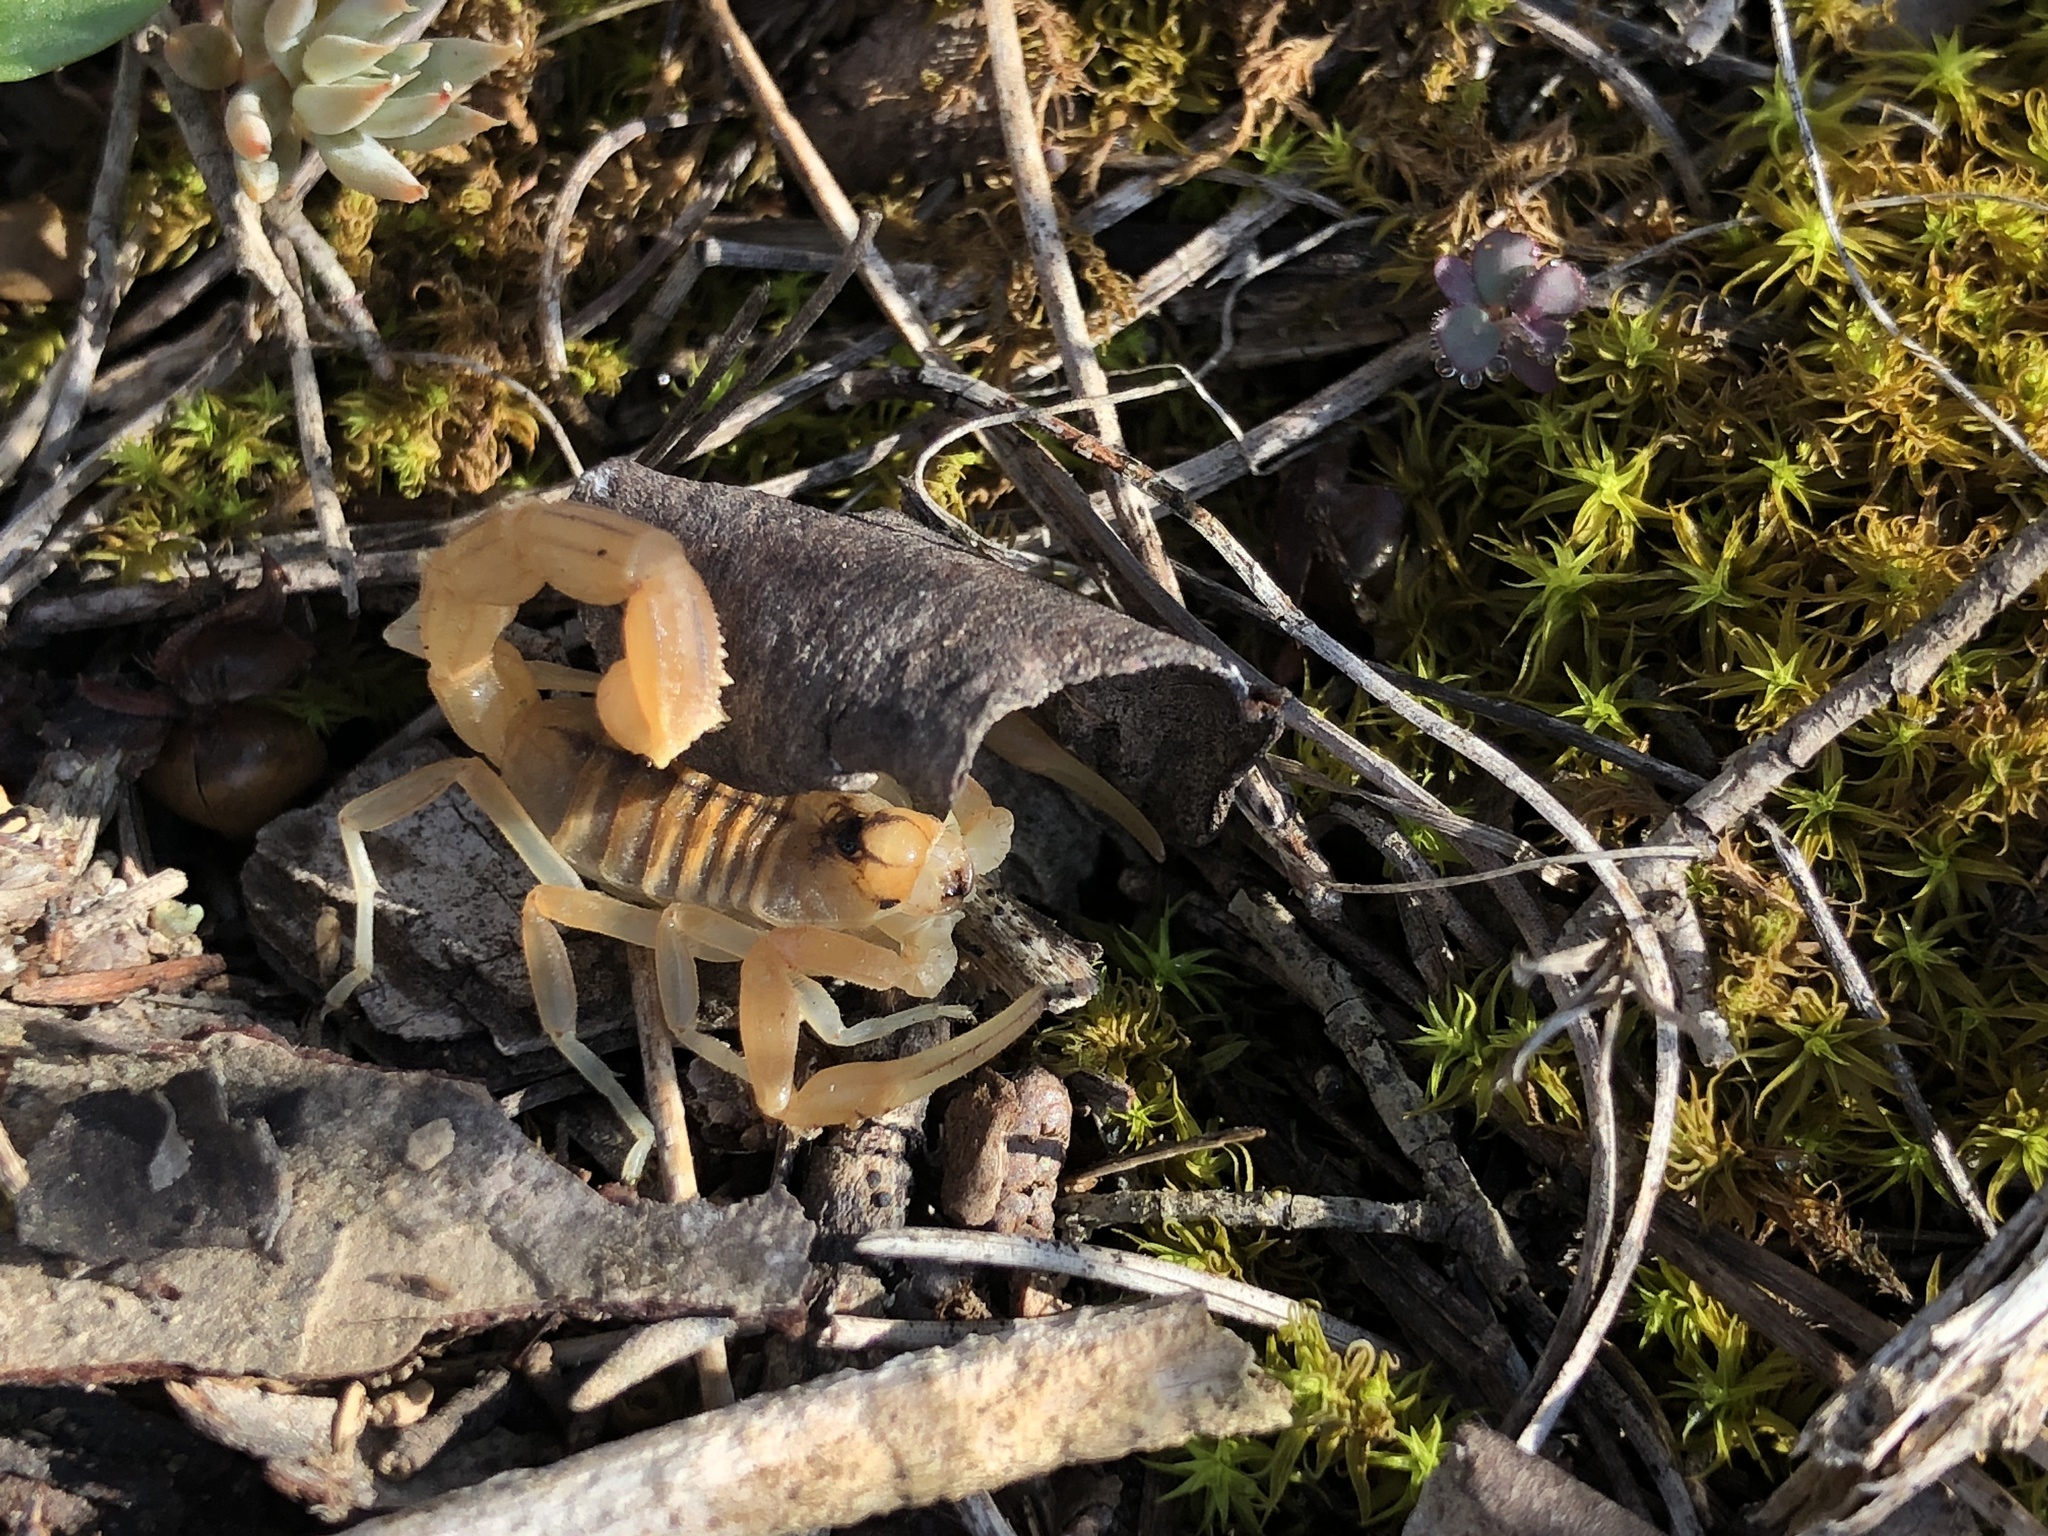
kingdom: Animalia
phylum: Arthropoda
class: Arachnida
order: Scorpiones
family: Buthidae
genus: Buthus
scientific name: Buthus occitanus
